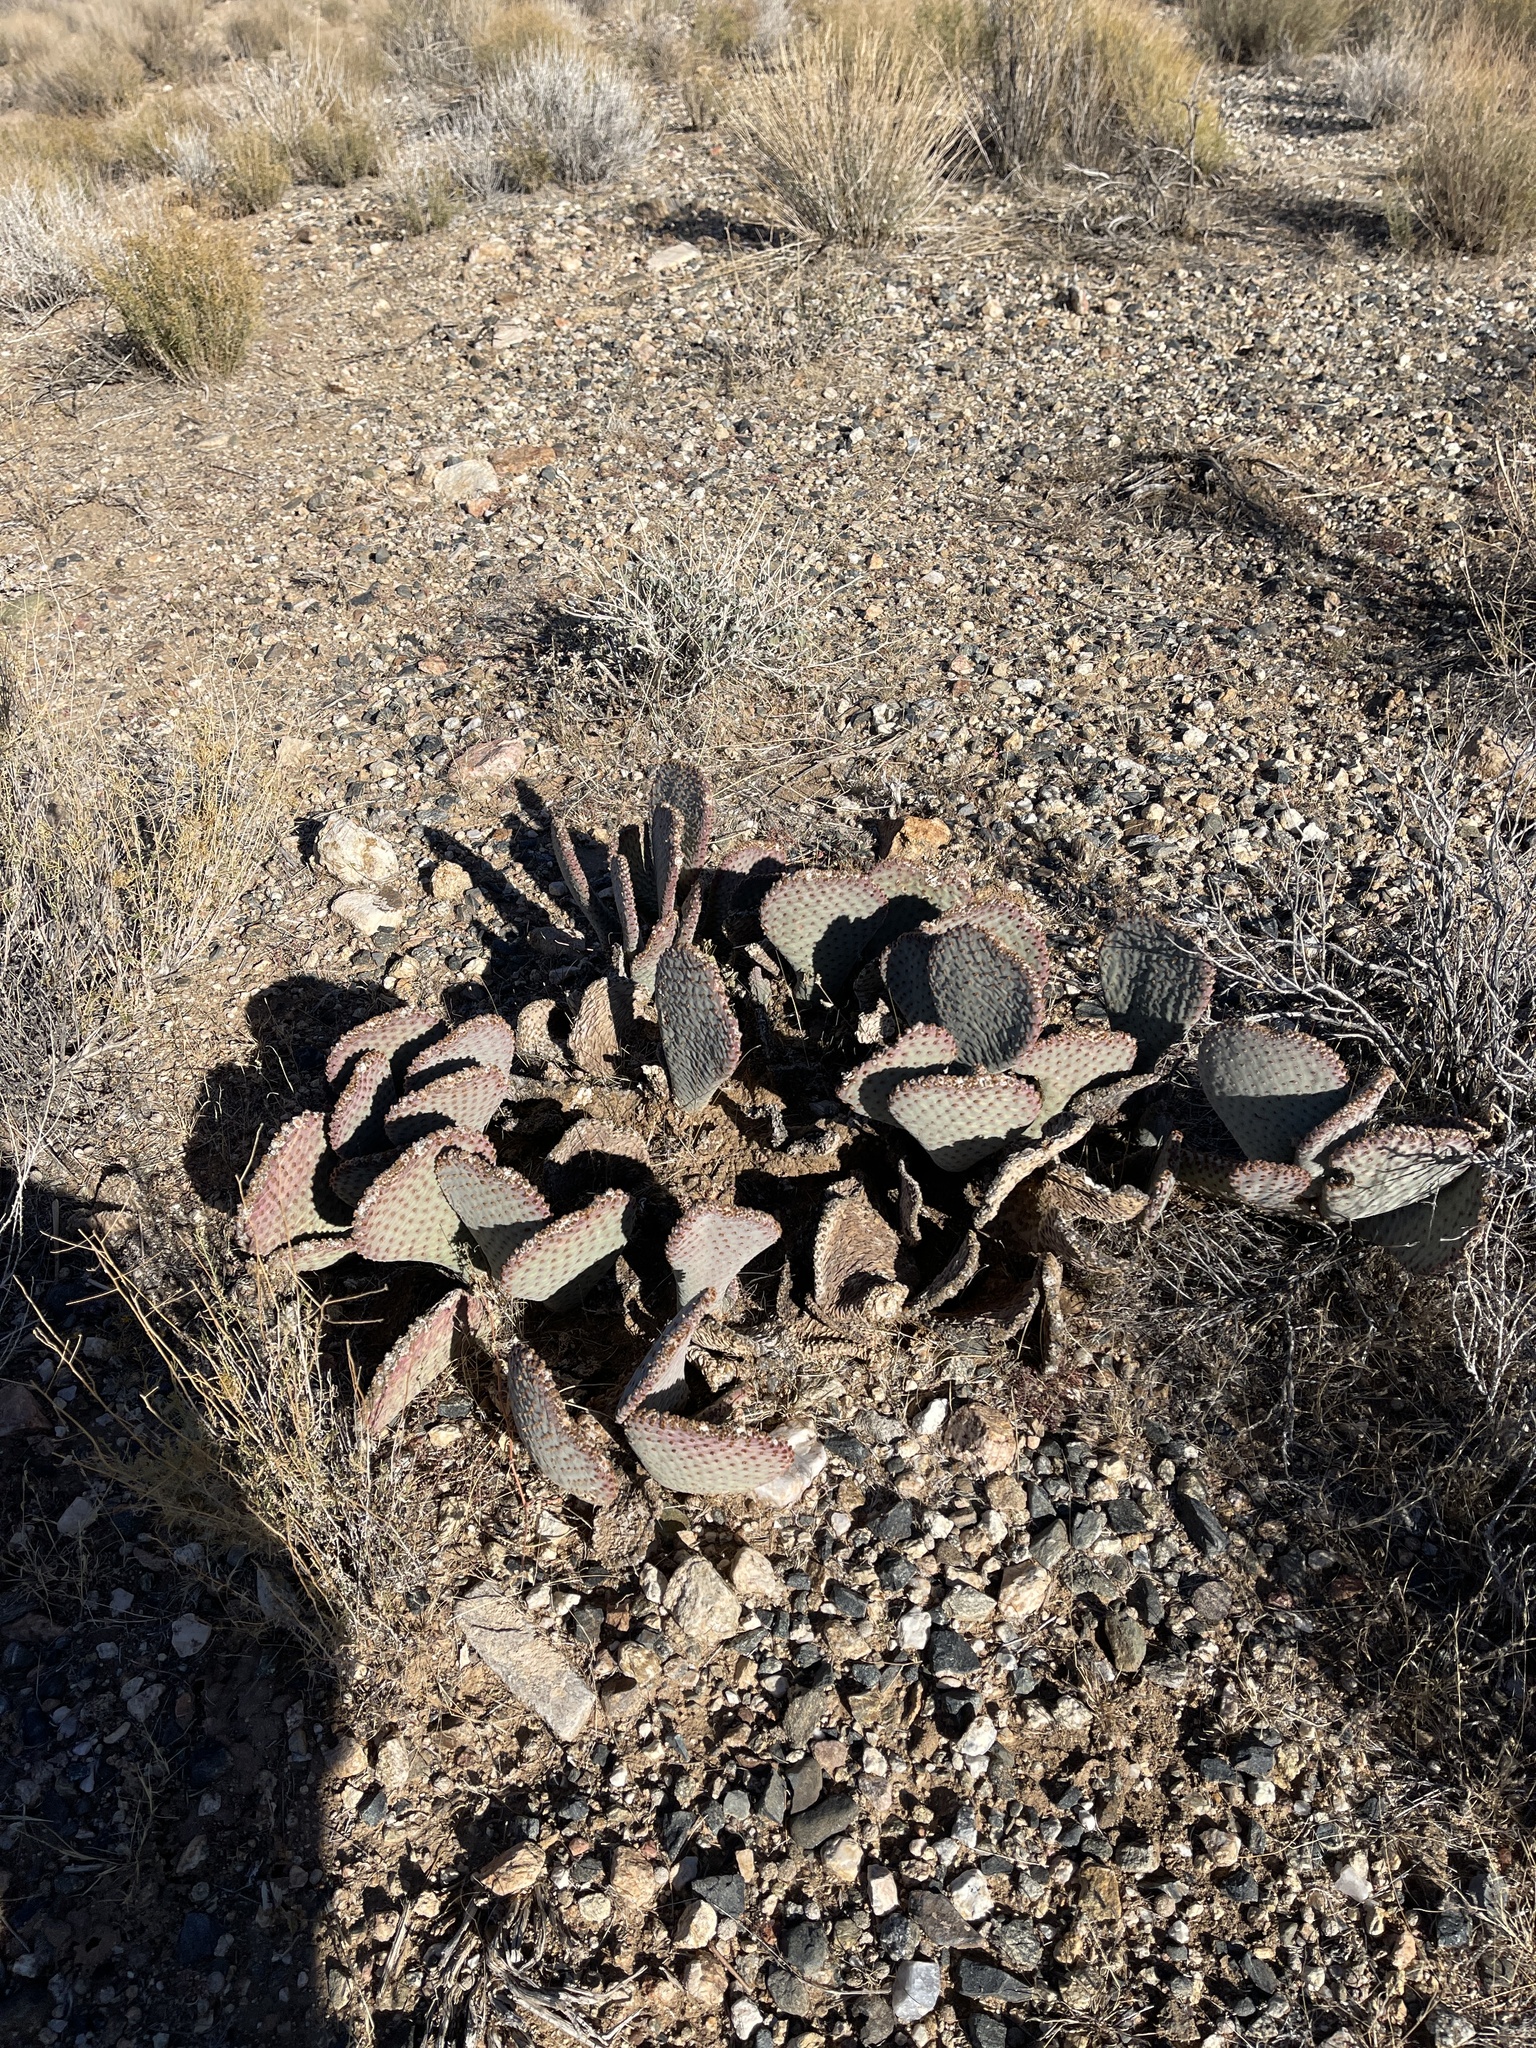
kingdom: Plantae
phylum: Tracheophyta
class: Magnoliopsida
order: Caryophyllales
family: Cactaceae
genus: Opuntia
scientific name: Opuntia basilaris
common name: Beavertail prickly-pear
